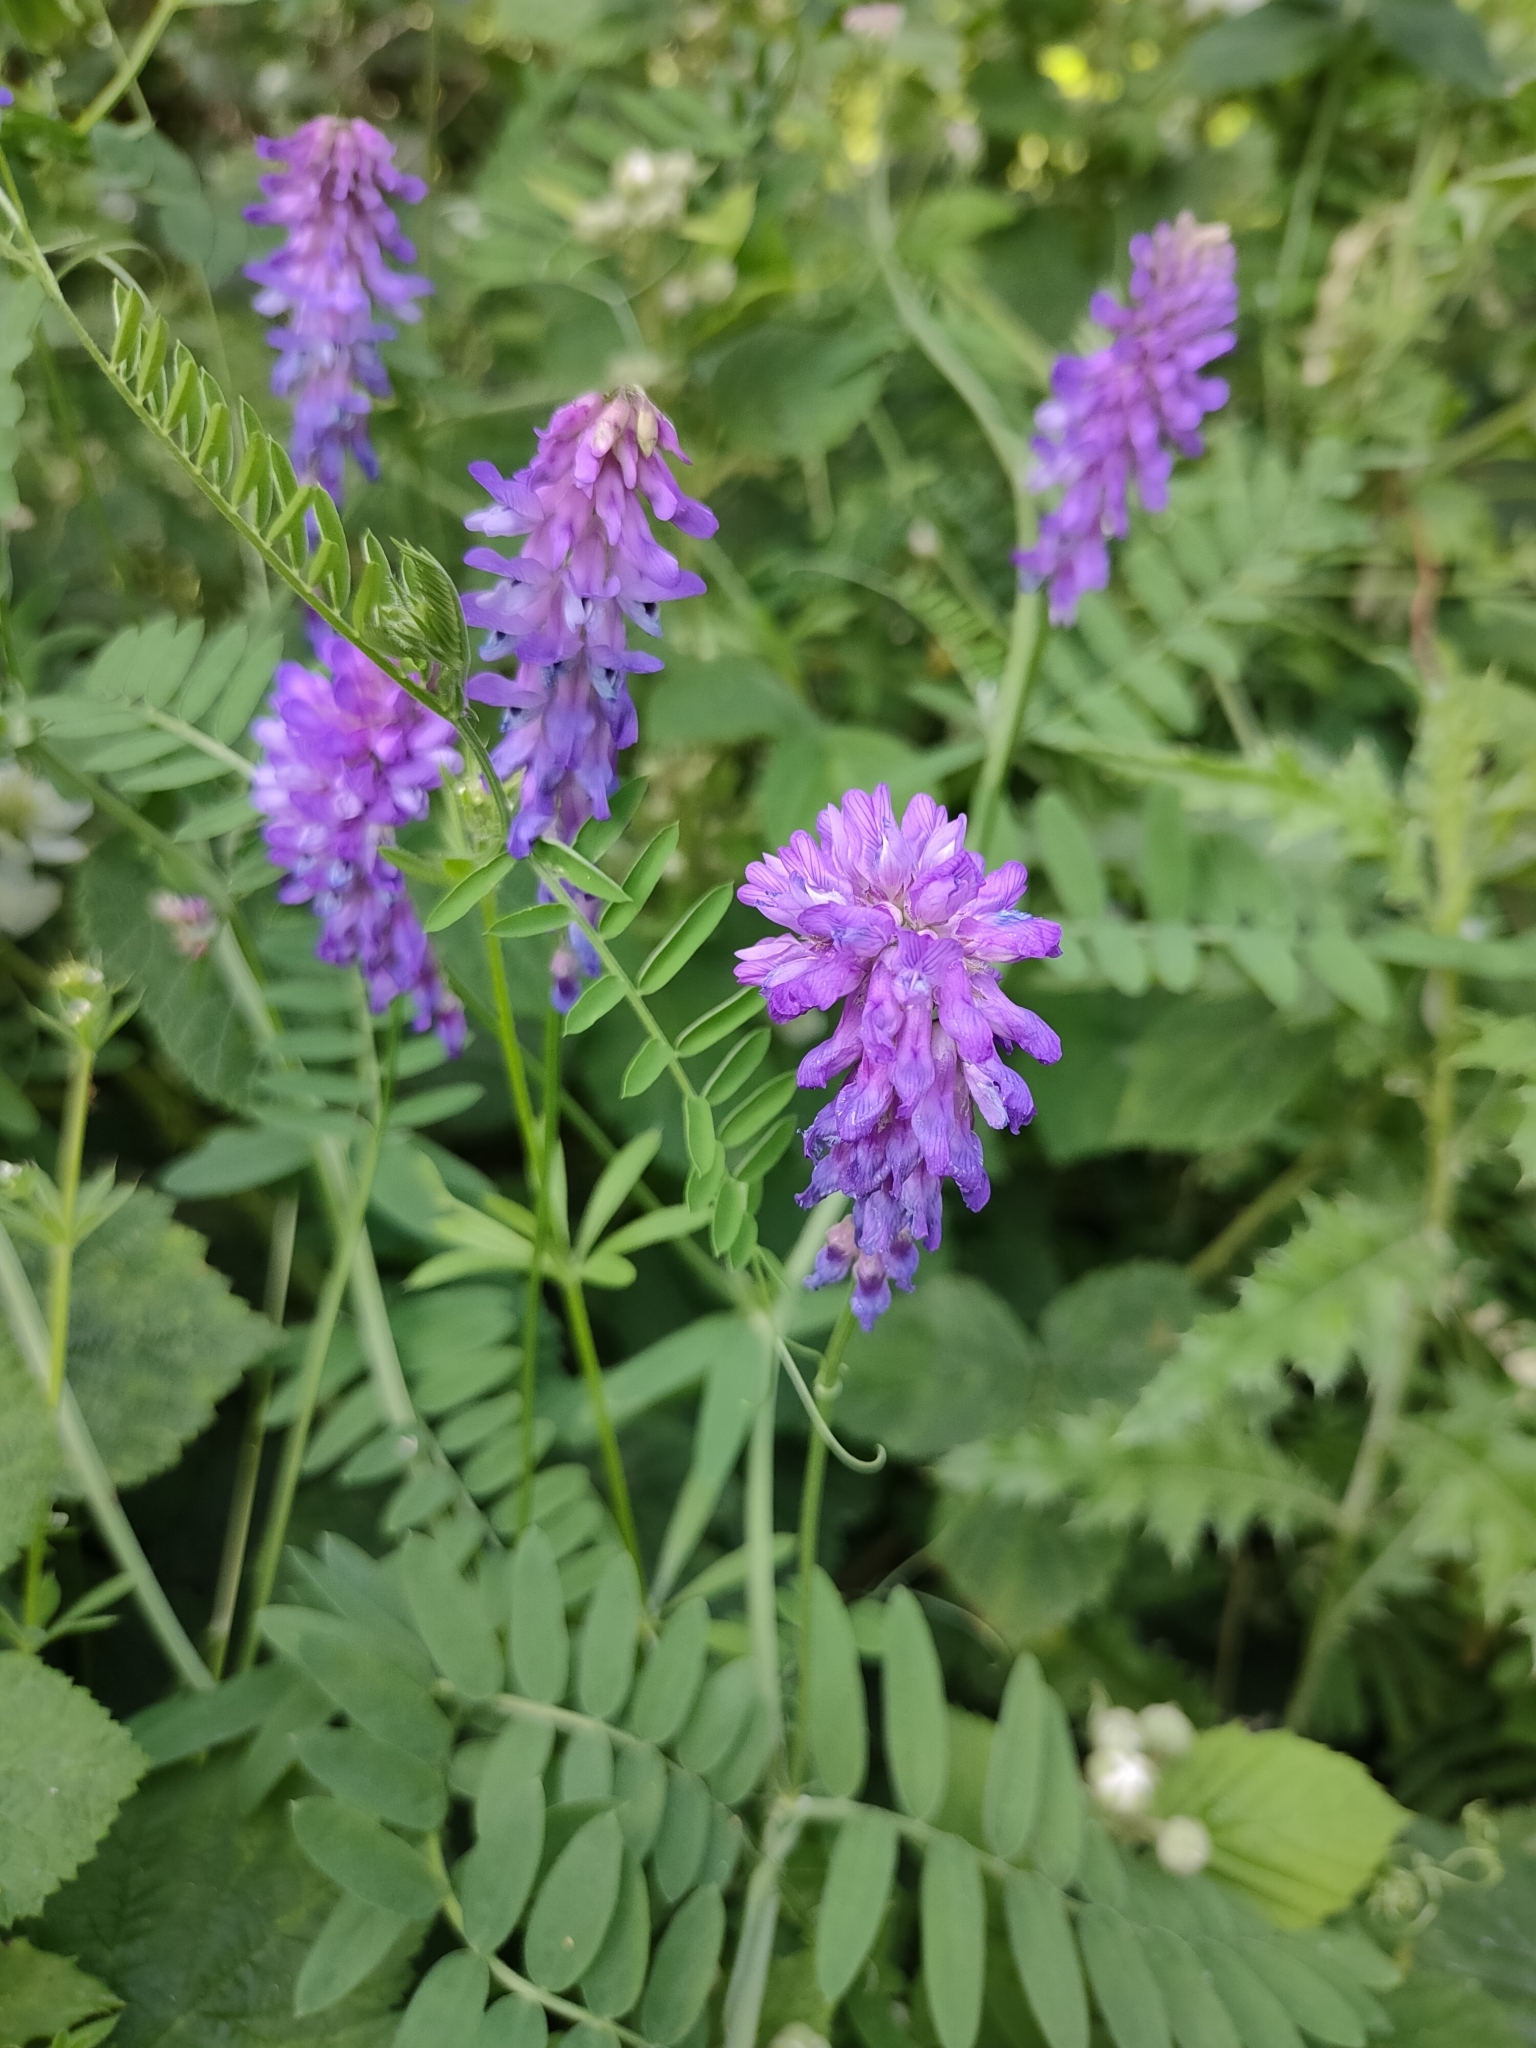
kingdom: Plantae
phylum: Tracheophyta
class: Magnoliopsida
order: Fabales
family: Fabaceae
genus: Vicia
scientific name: Vicia cracca
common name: Bird vetch
